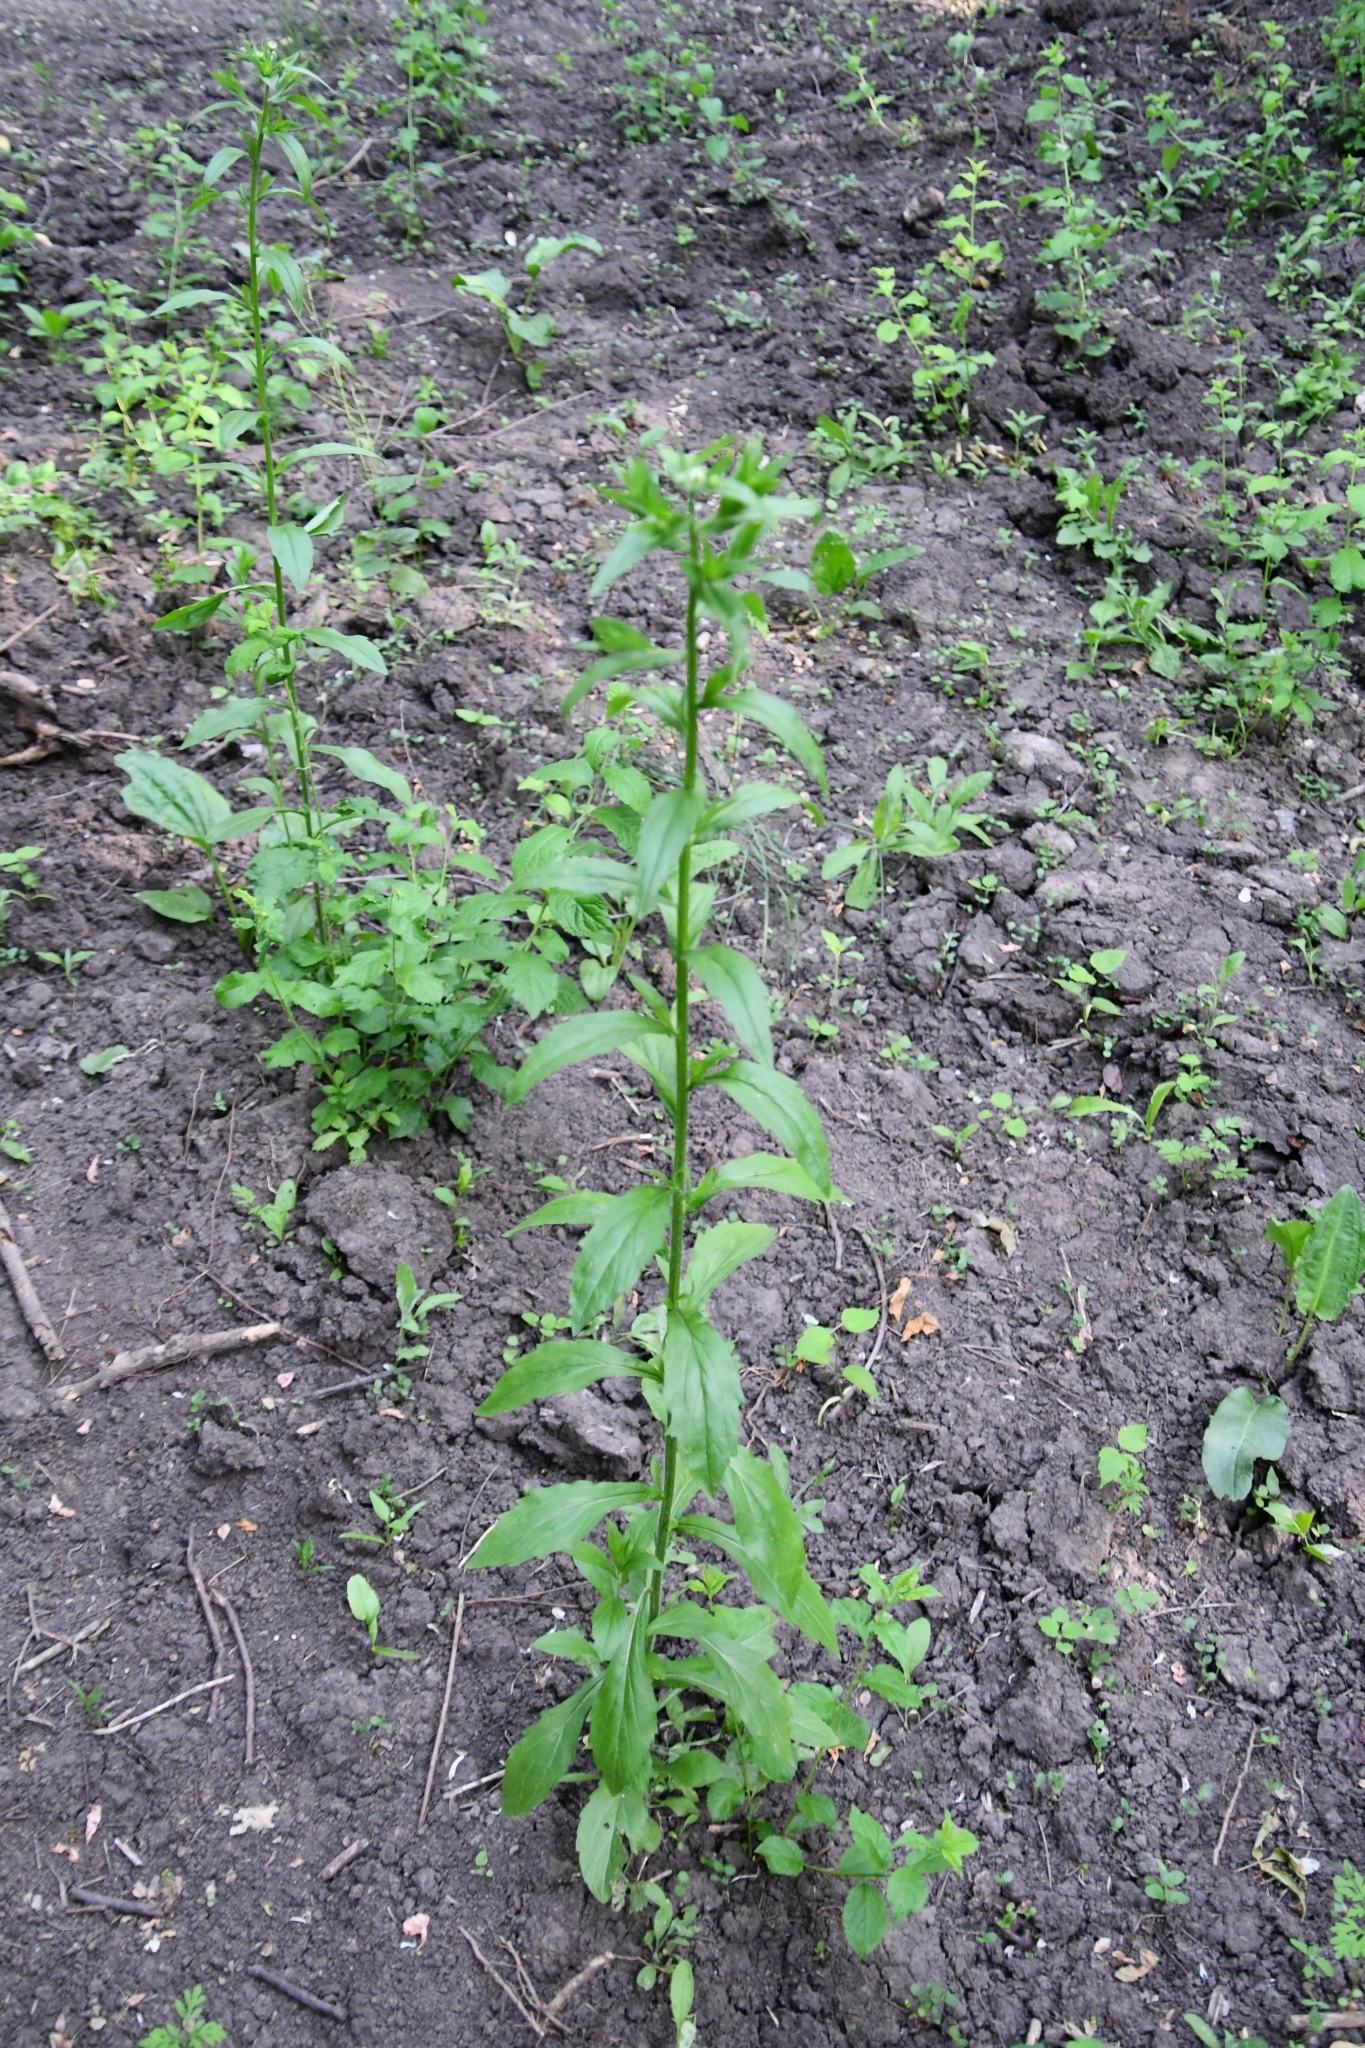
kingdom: Plantae
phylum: Tracheophyta
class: Magnoliopsida
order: Asterales
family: Asteraceae
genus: Erigeron
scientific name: Erigeron annuus
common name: Tall fleabane
